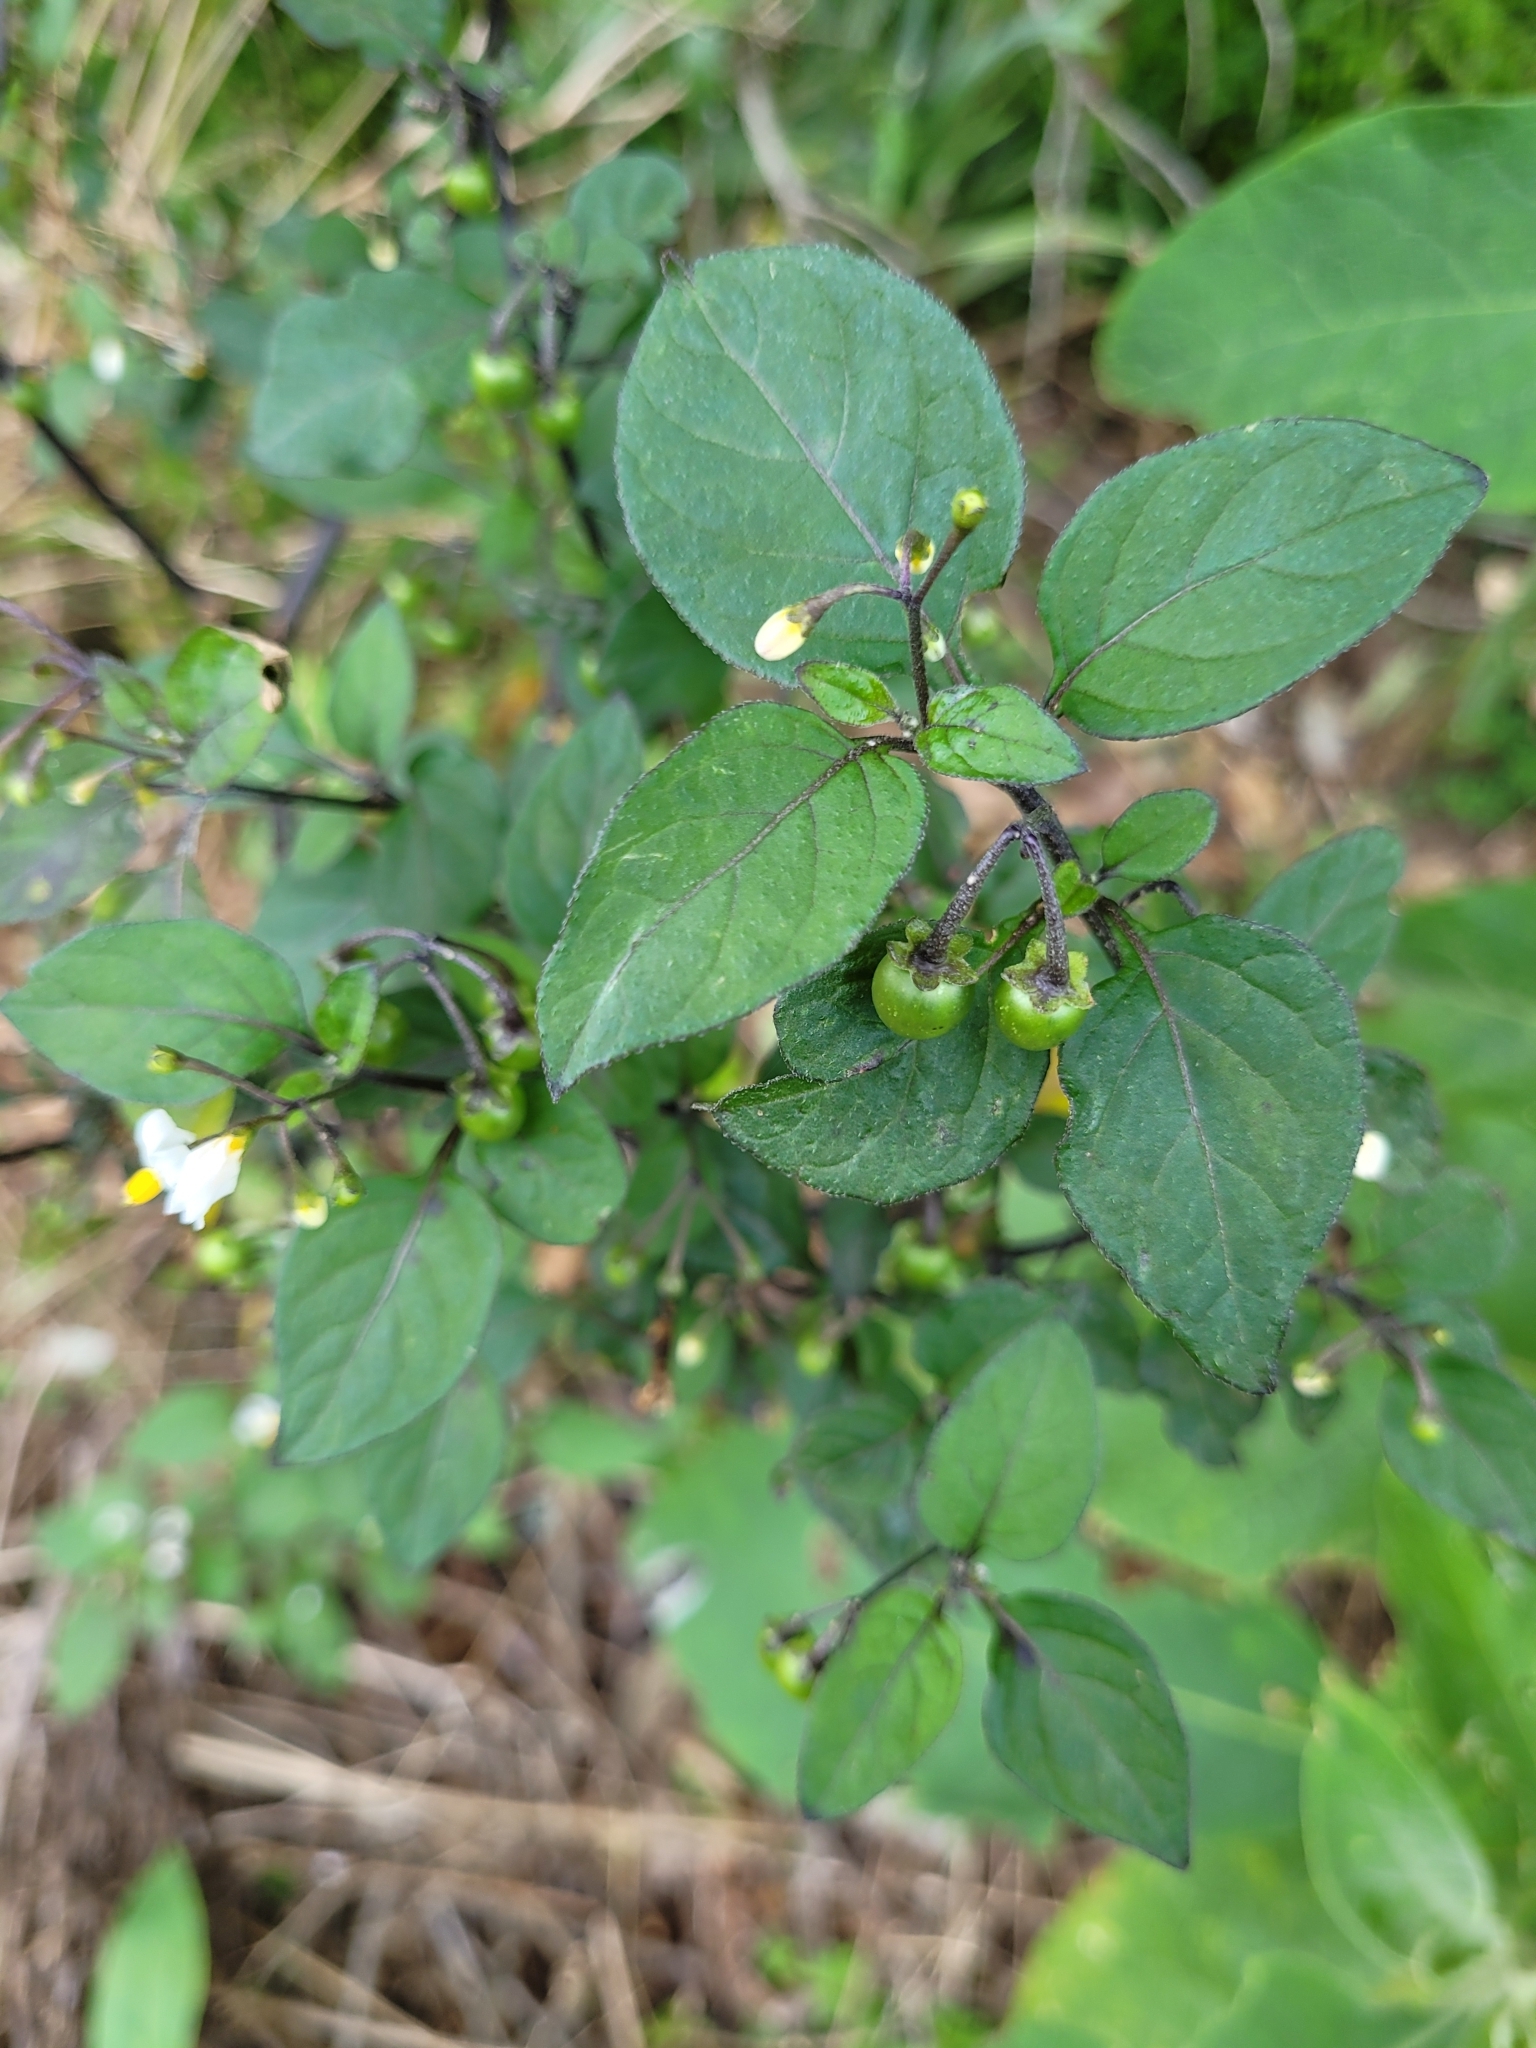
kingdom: Plantae
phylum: Tracheophyta
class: Magnoliopsida
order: Solanales
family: Solanaceae
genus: Solanum
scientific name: Solanum nigrum
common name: Black nightshade
